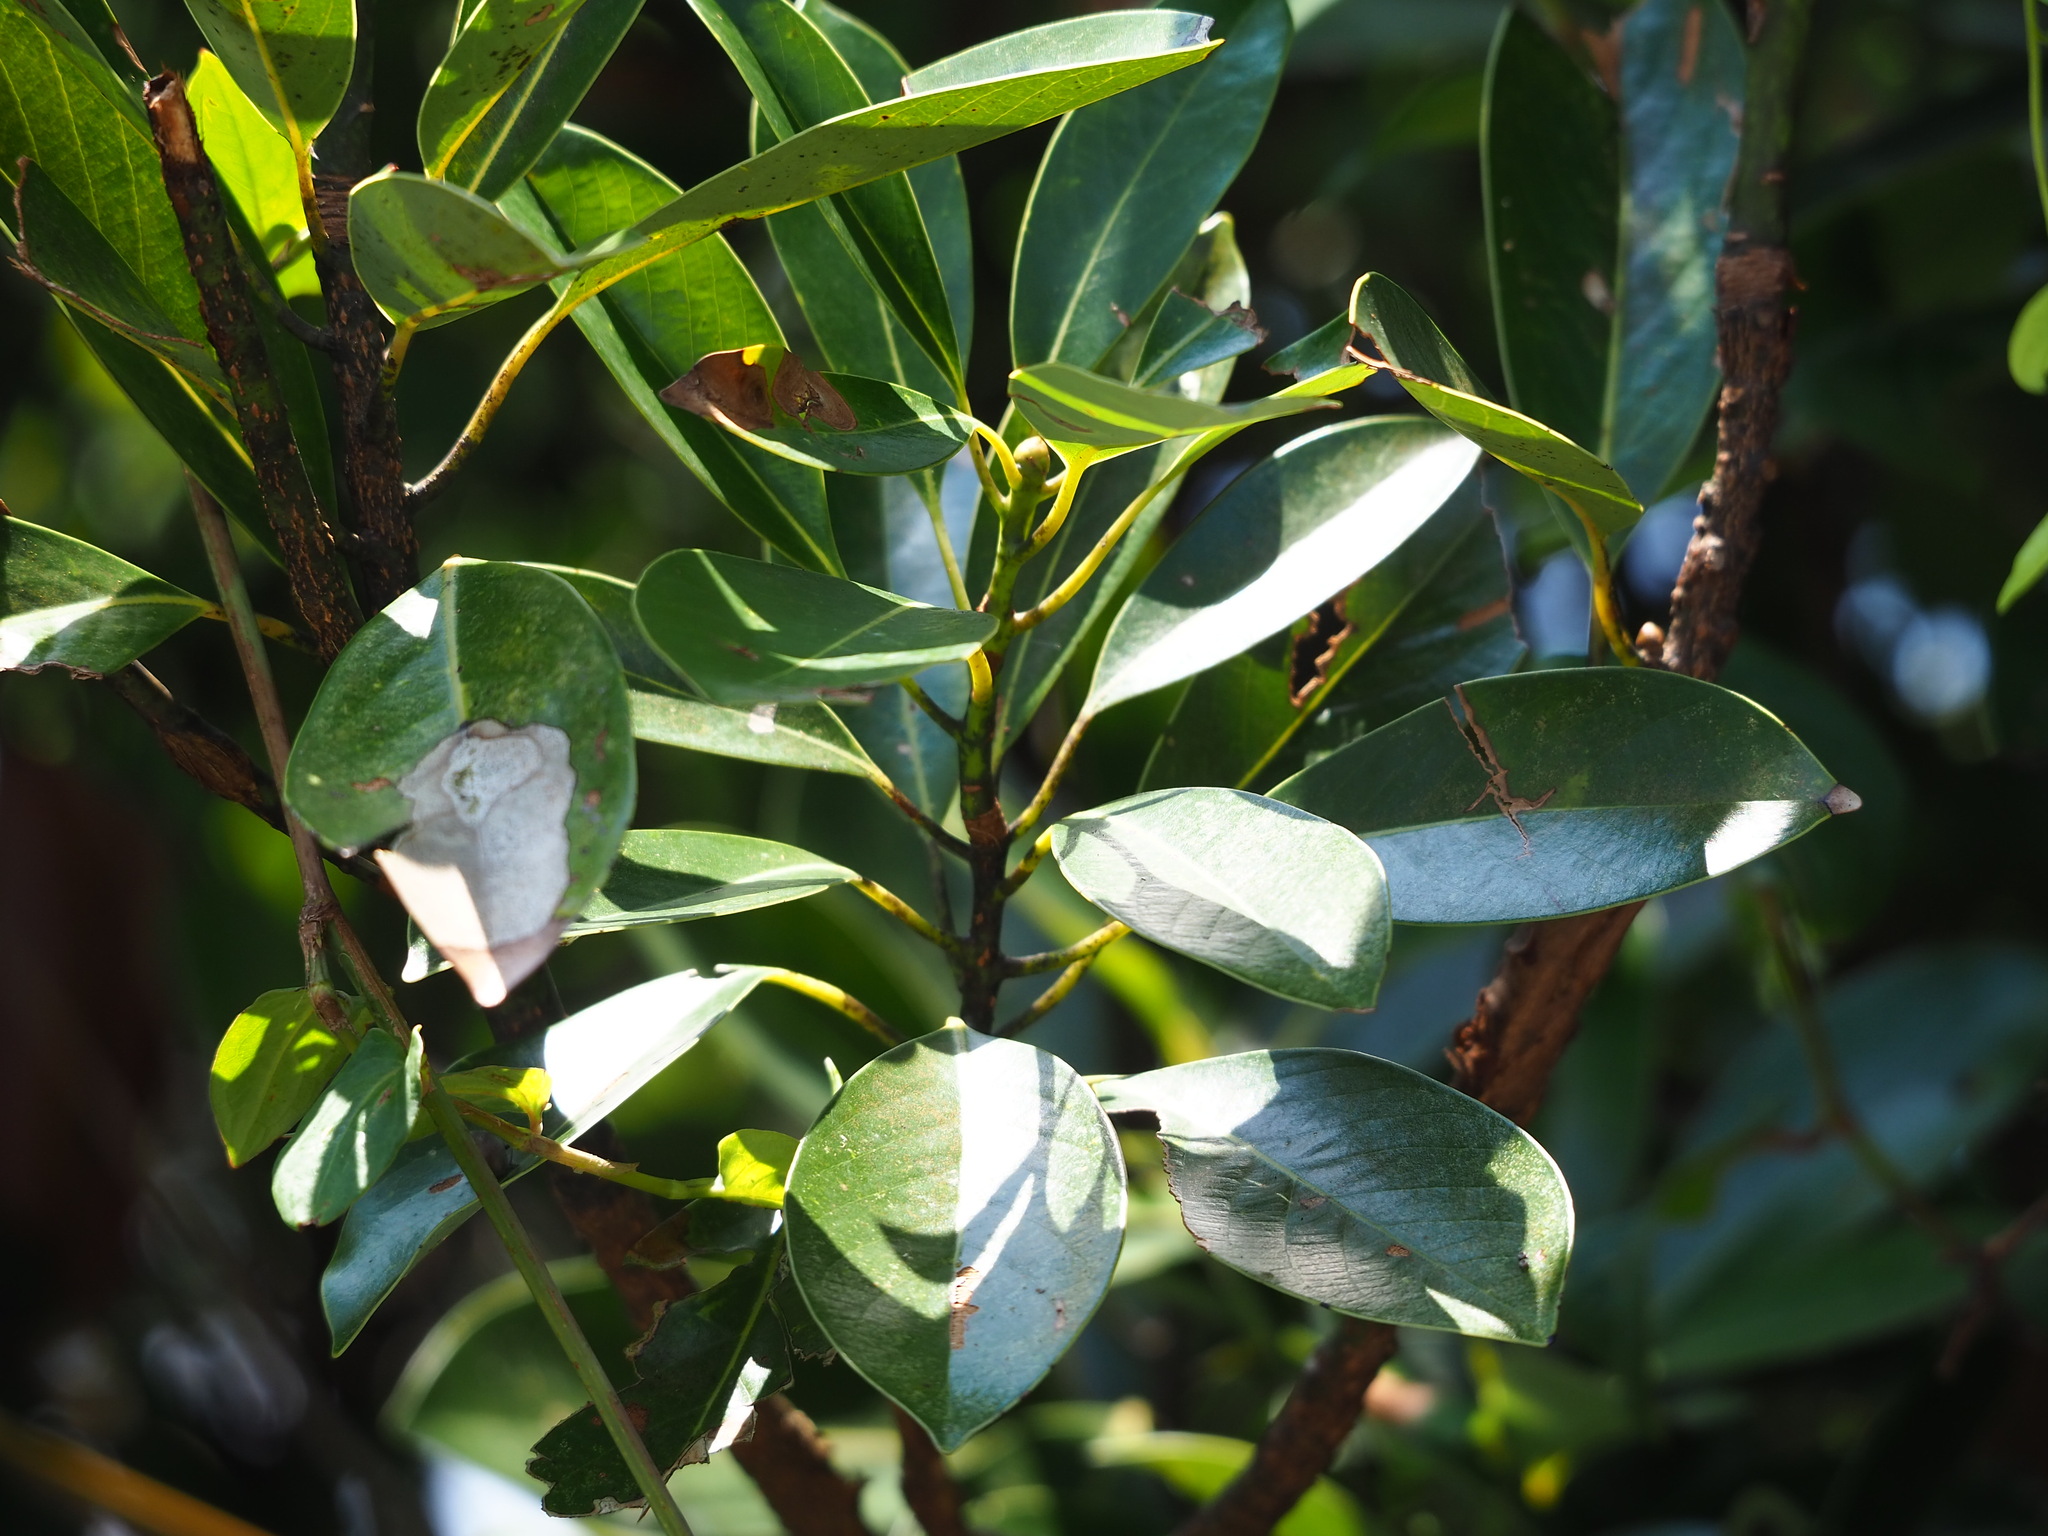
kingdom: Plantae
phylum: Tracheophyta
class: Magnoliopsida
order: Laurales
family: Lauraceae
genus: Machilus
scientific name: Machilus thunbergii
